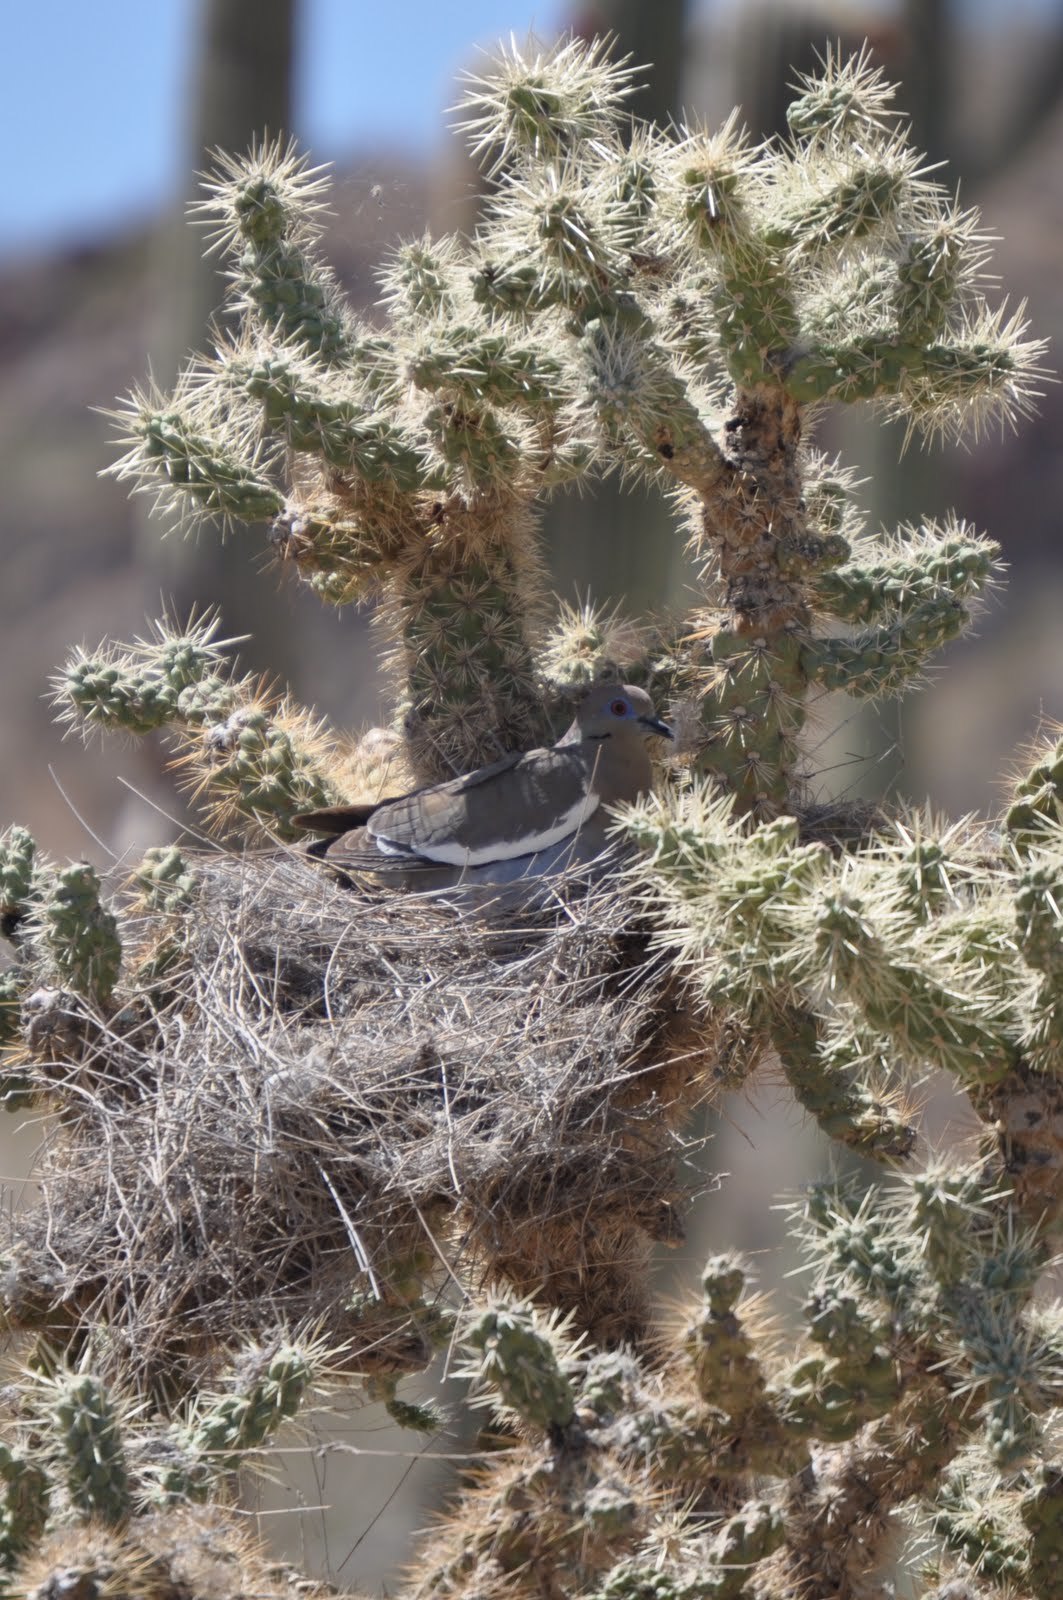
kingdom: Animalia
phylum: Chordata
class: Aves
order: Columbiformes
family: Columbidae
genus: Zenaida
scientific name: Zenaida asiatica
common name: White-winged dove
